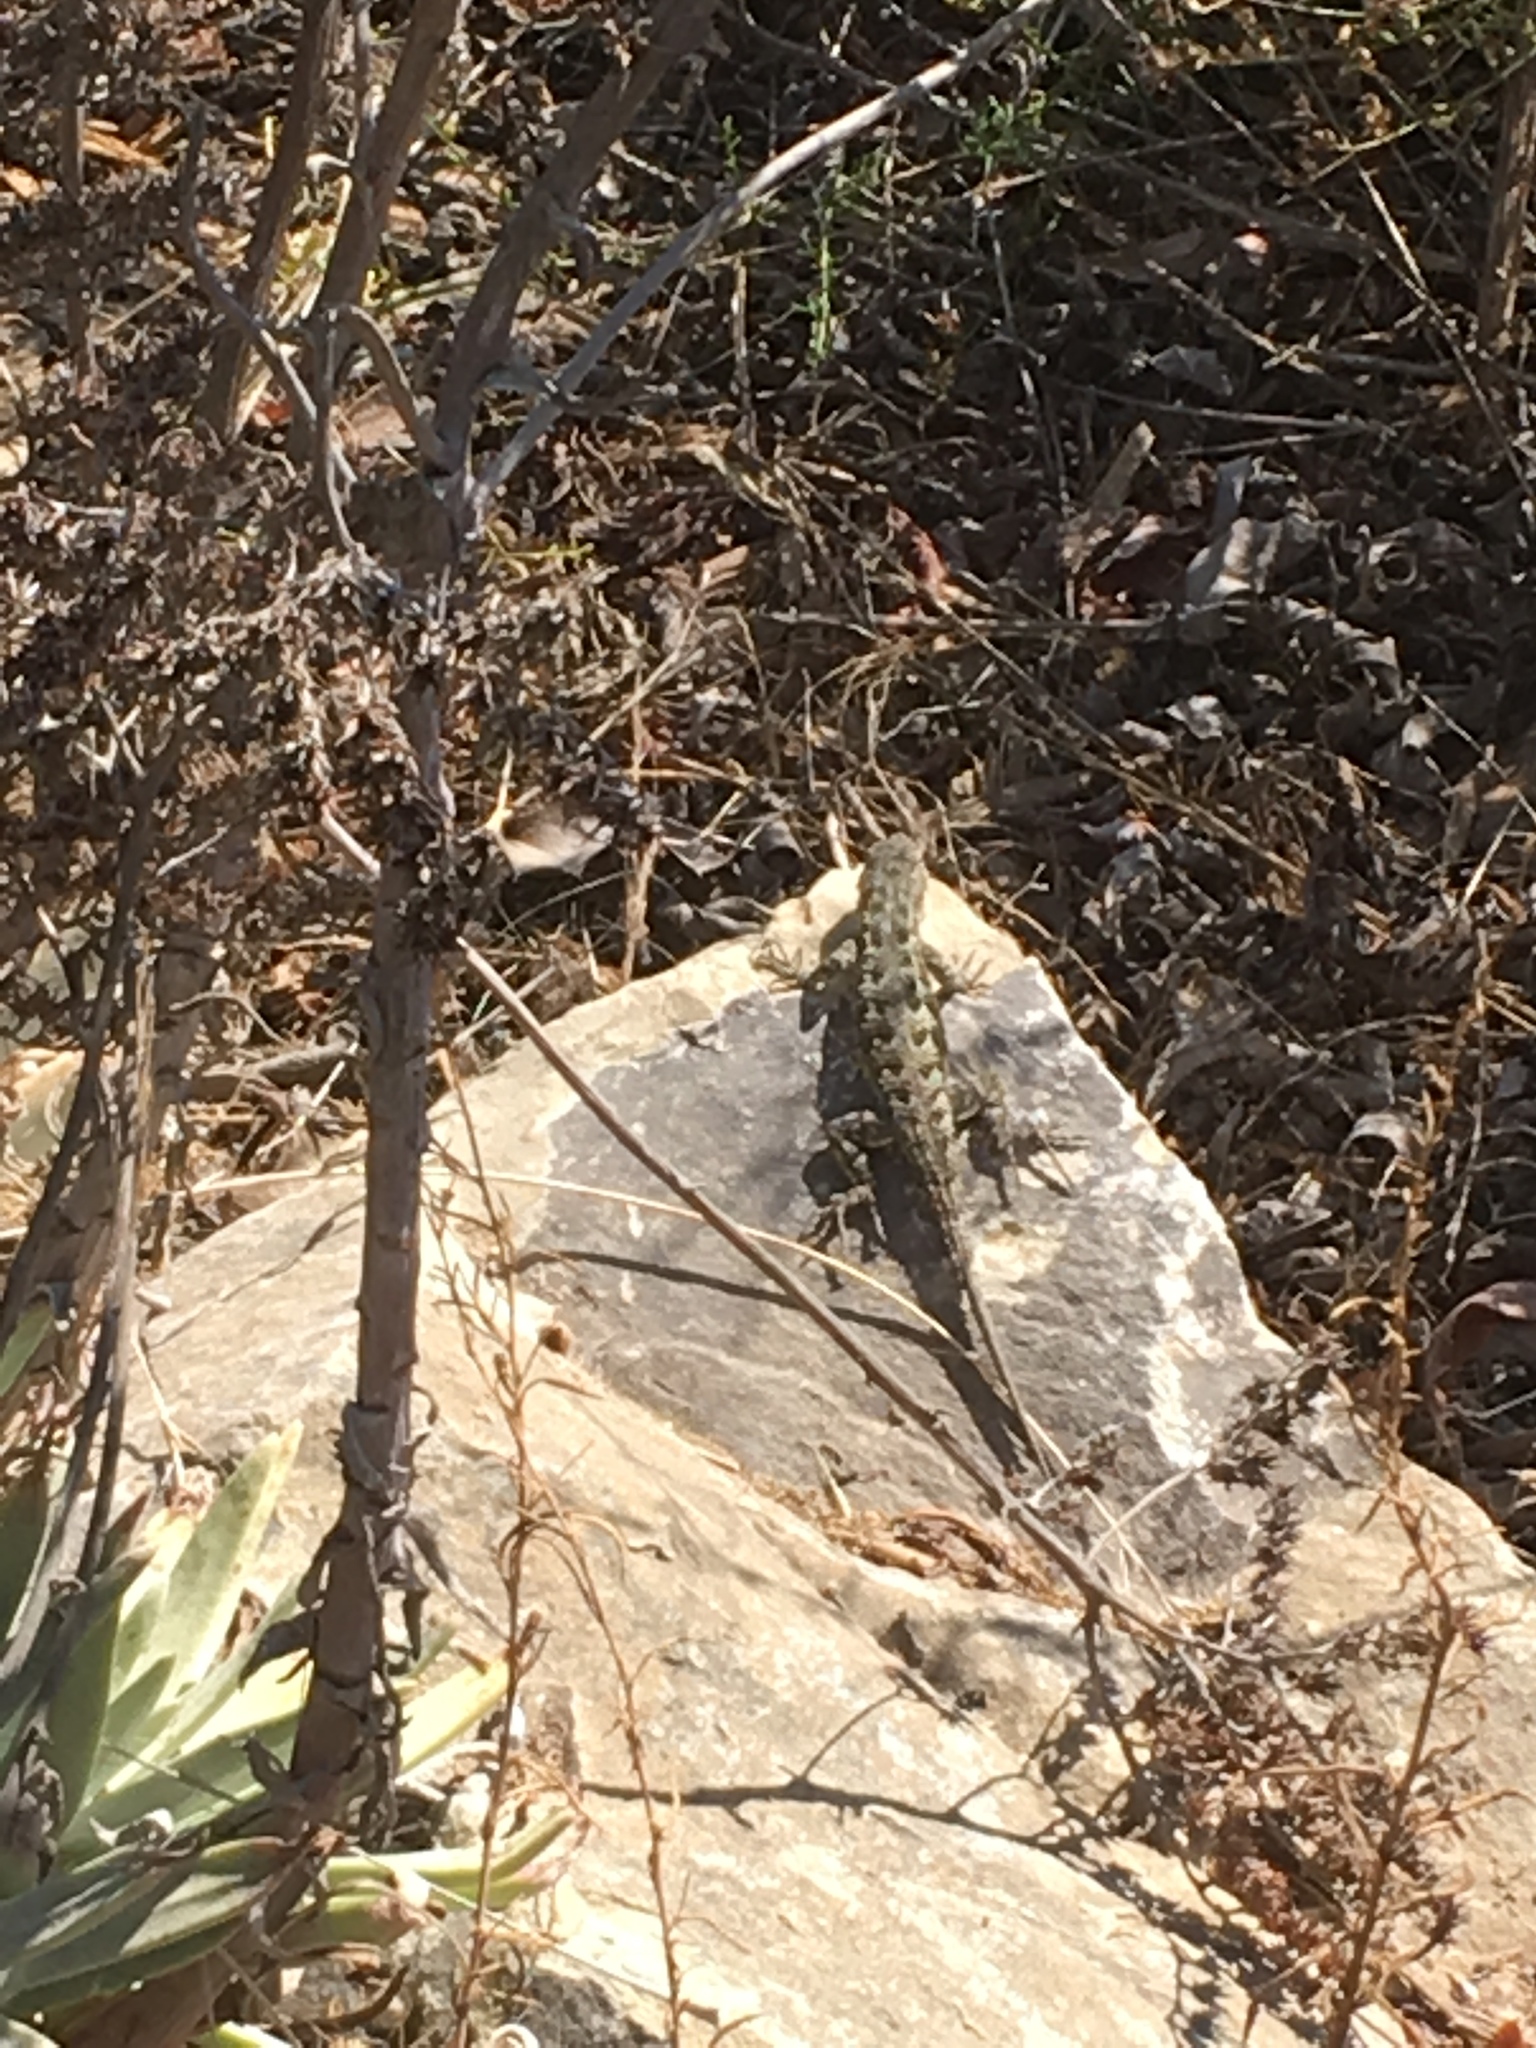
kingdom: Animalia
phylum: Chordata
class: Squamata
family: Phrynosomatidae
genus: Sceloporus
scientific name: Sceloporus occidentalis
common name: Western fence lizard
